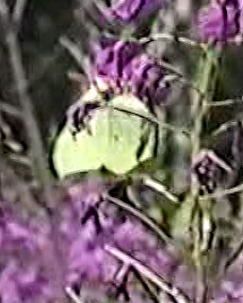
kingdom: Animalia
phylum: Arthropoda
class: Insecta
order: Lepidoptera
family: Pieridae
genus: Gonepteryx
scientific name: Gonepteryx rhamni
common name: Brimstone
